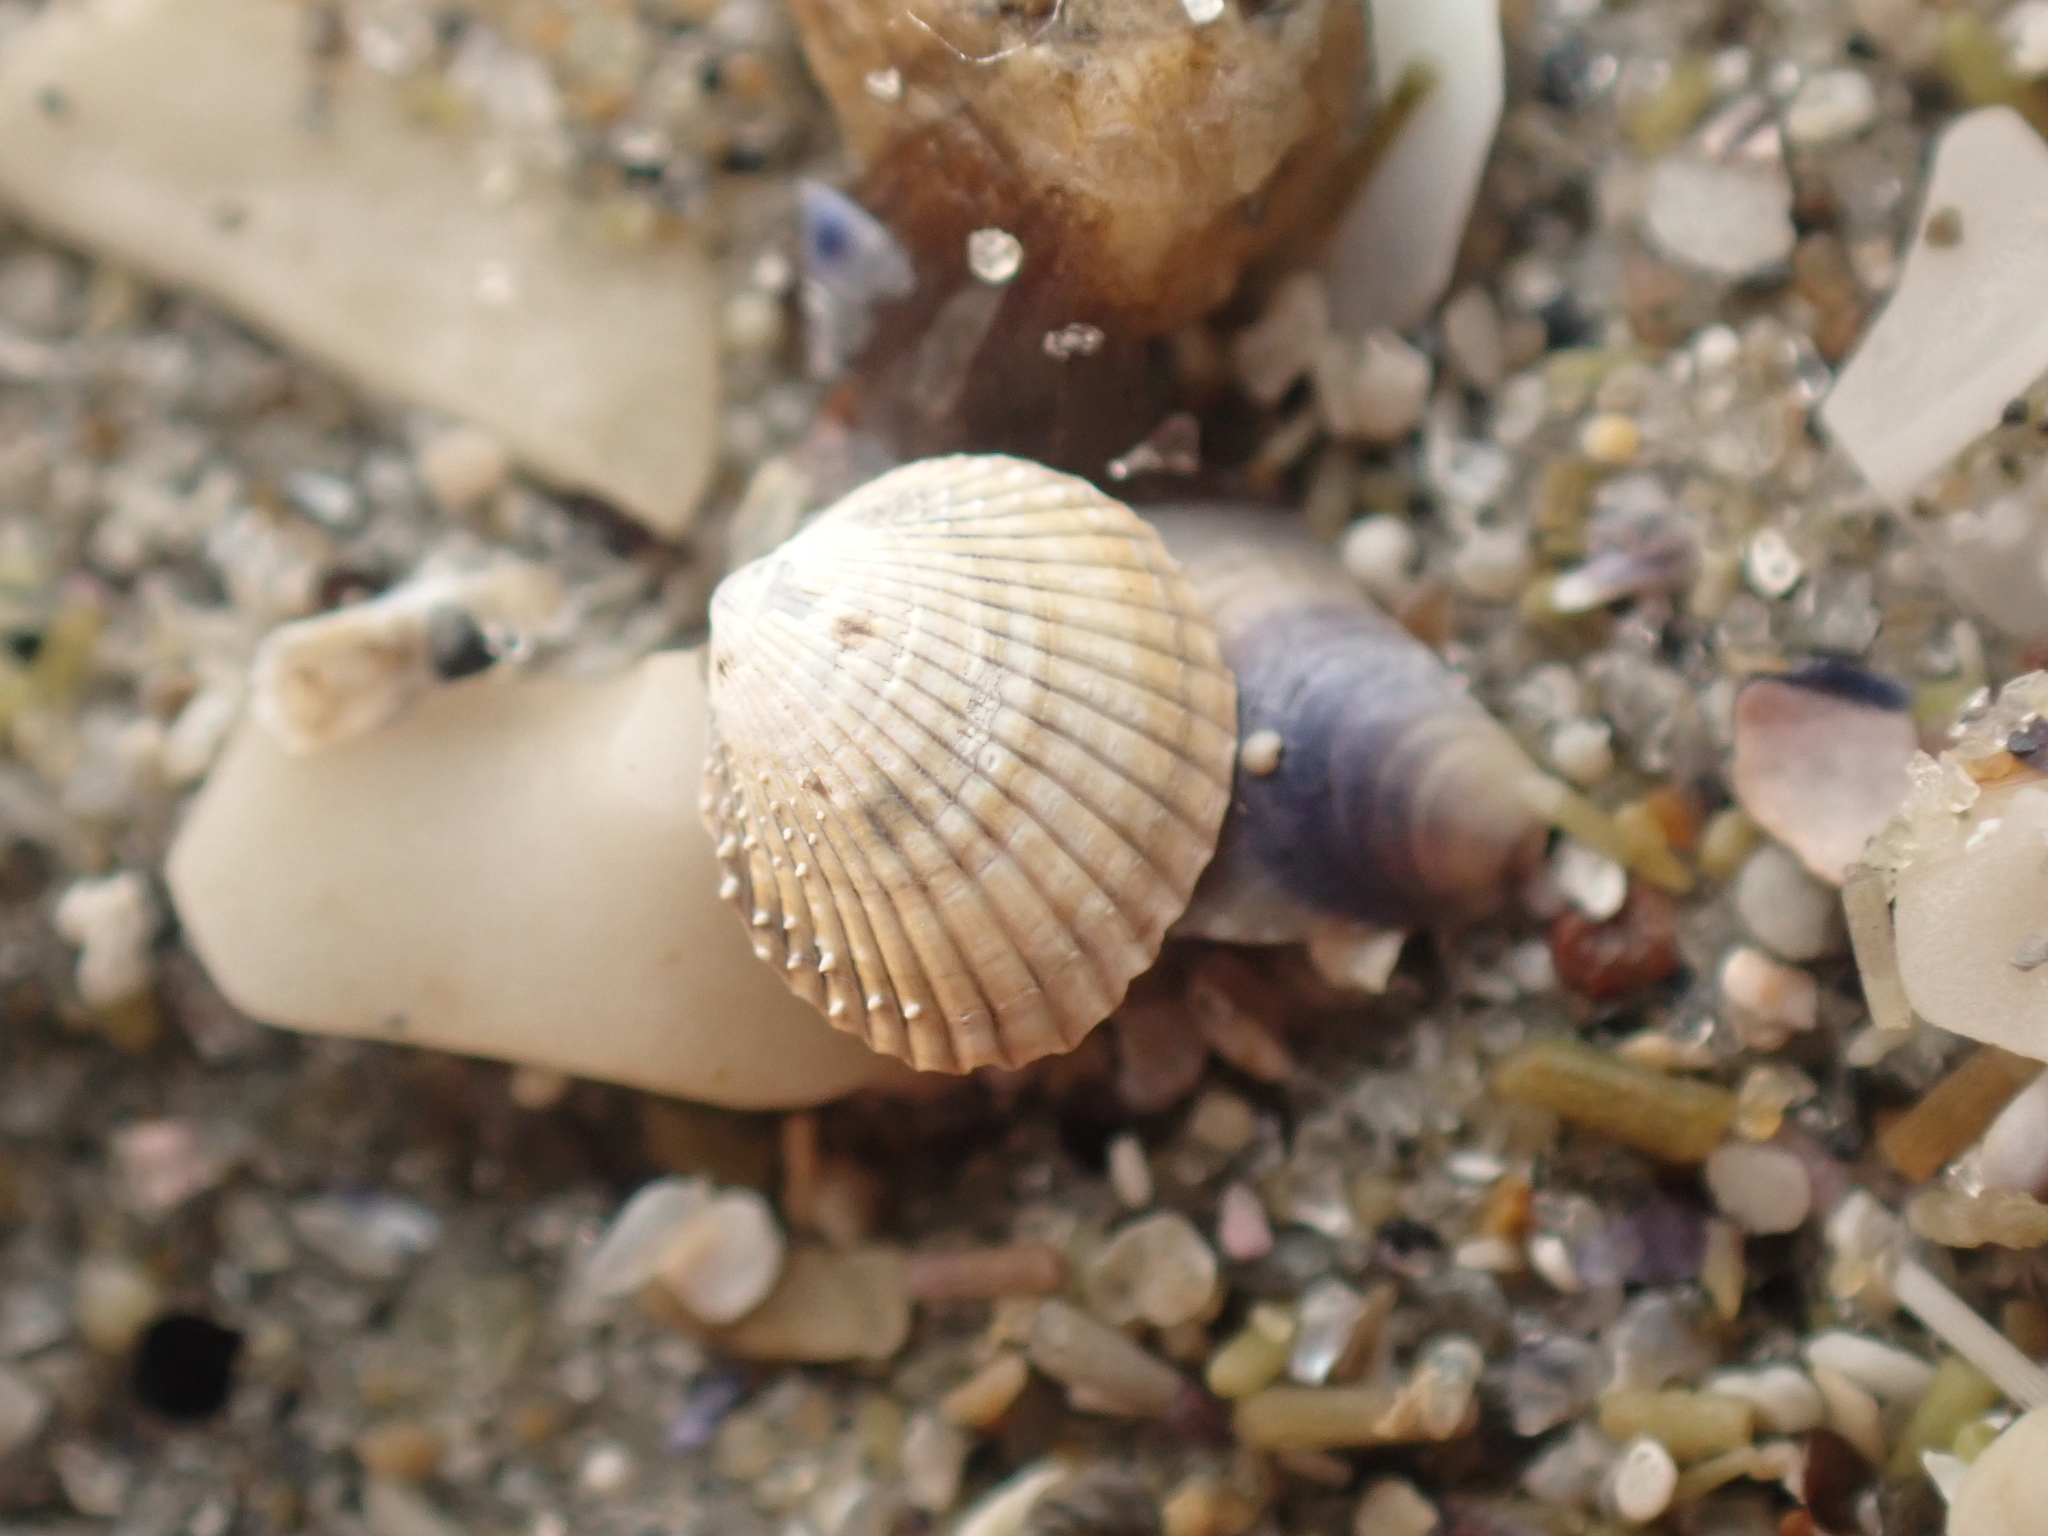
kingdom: Animalia
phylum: Mollusca
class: Bivalvia
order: Cardiida
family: Cardiidae
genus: Parvicardium
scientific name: Parvicardium pinnulatum
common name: Oval cockle
